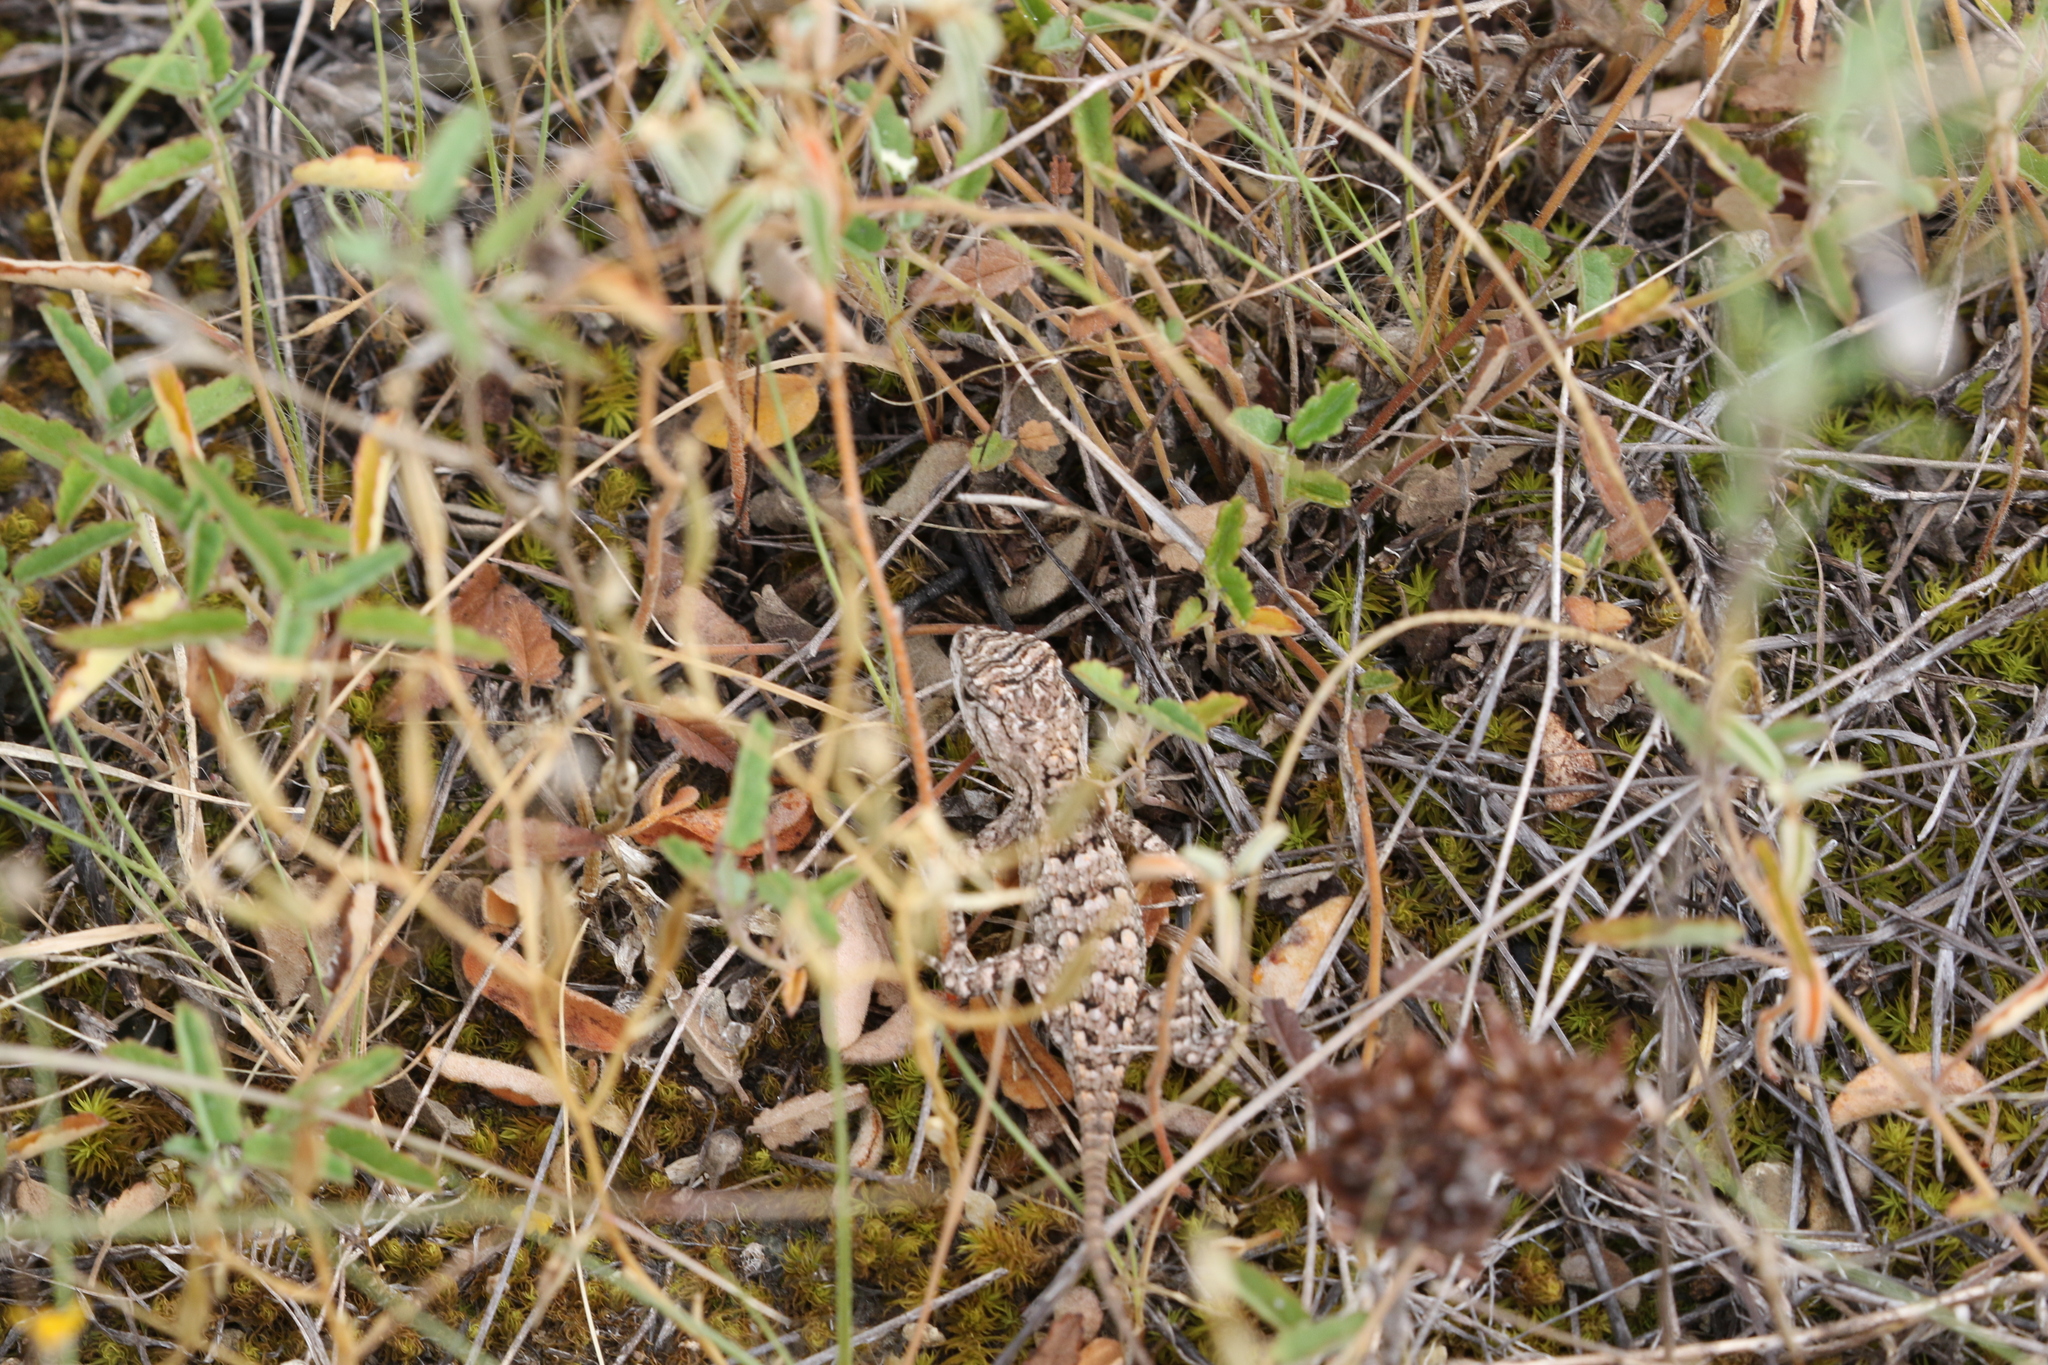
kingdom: Animalia
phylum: Chordata
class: Squamata
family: Phrynosomatidae
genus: Sceloporus
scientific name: Sceloporus olivaceus
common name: Texas spiny lizard
